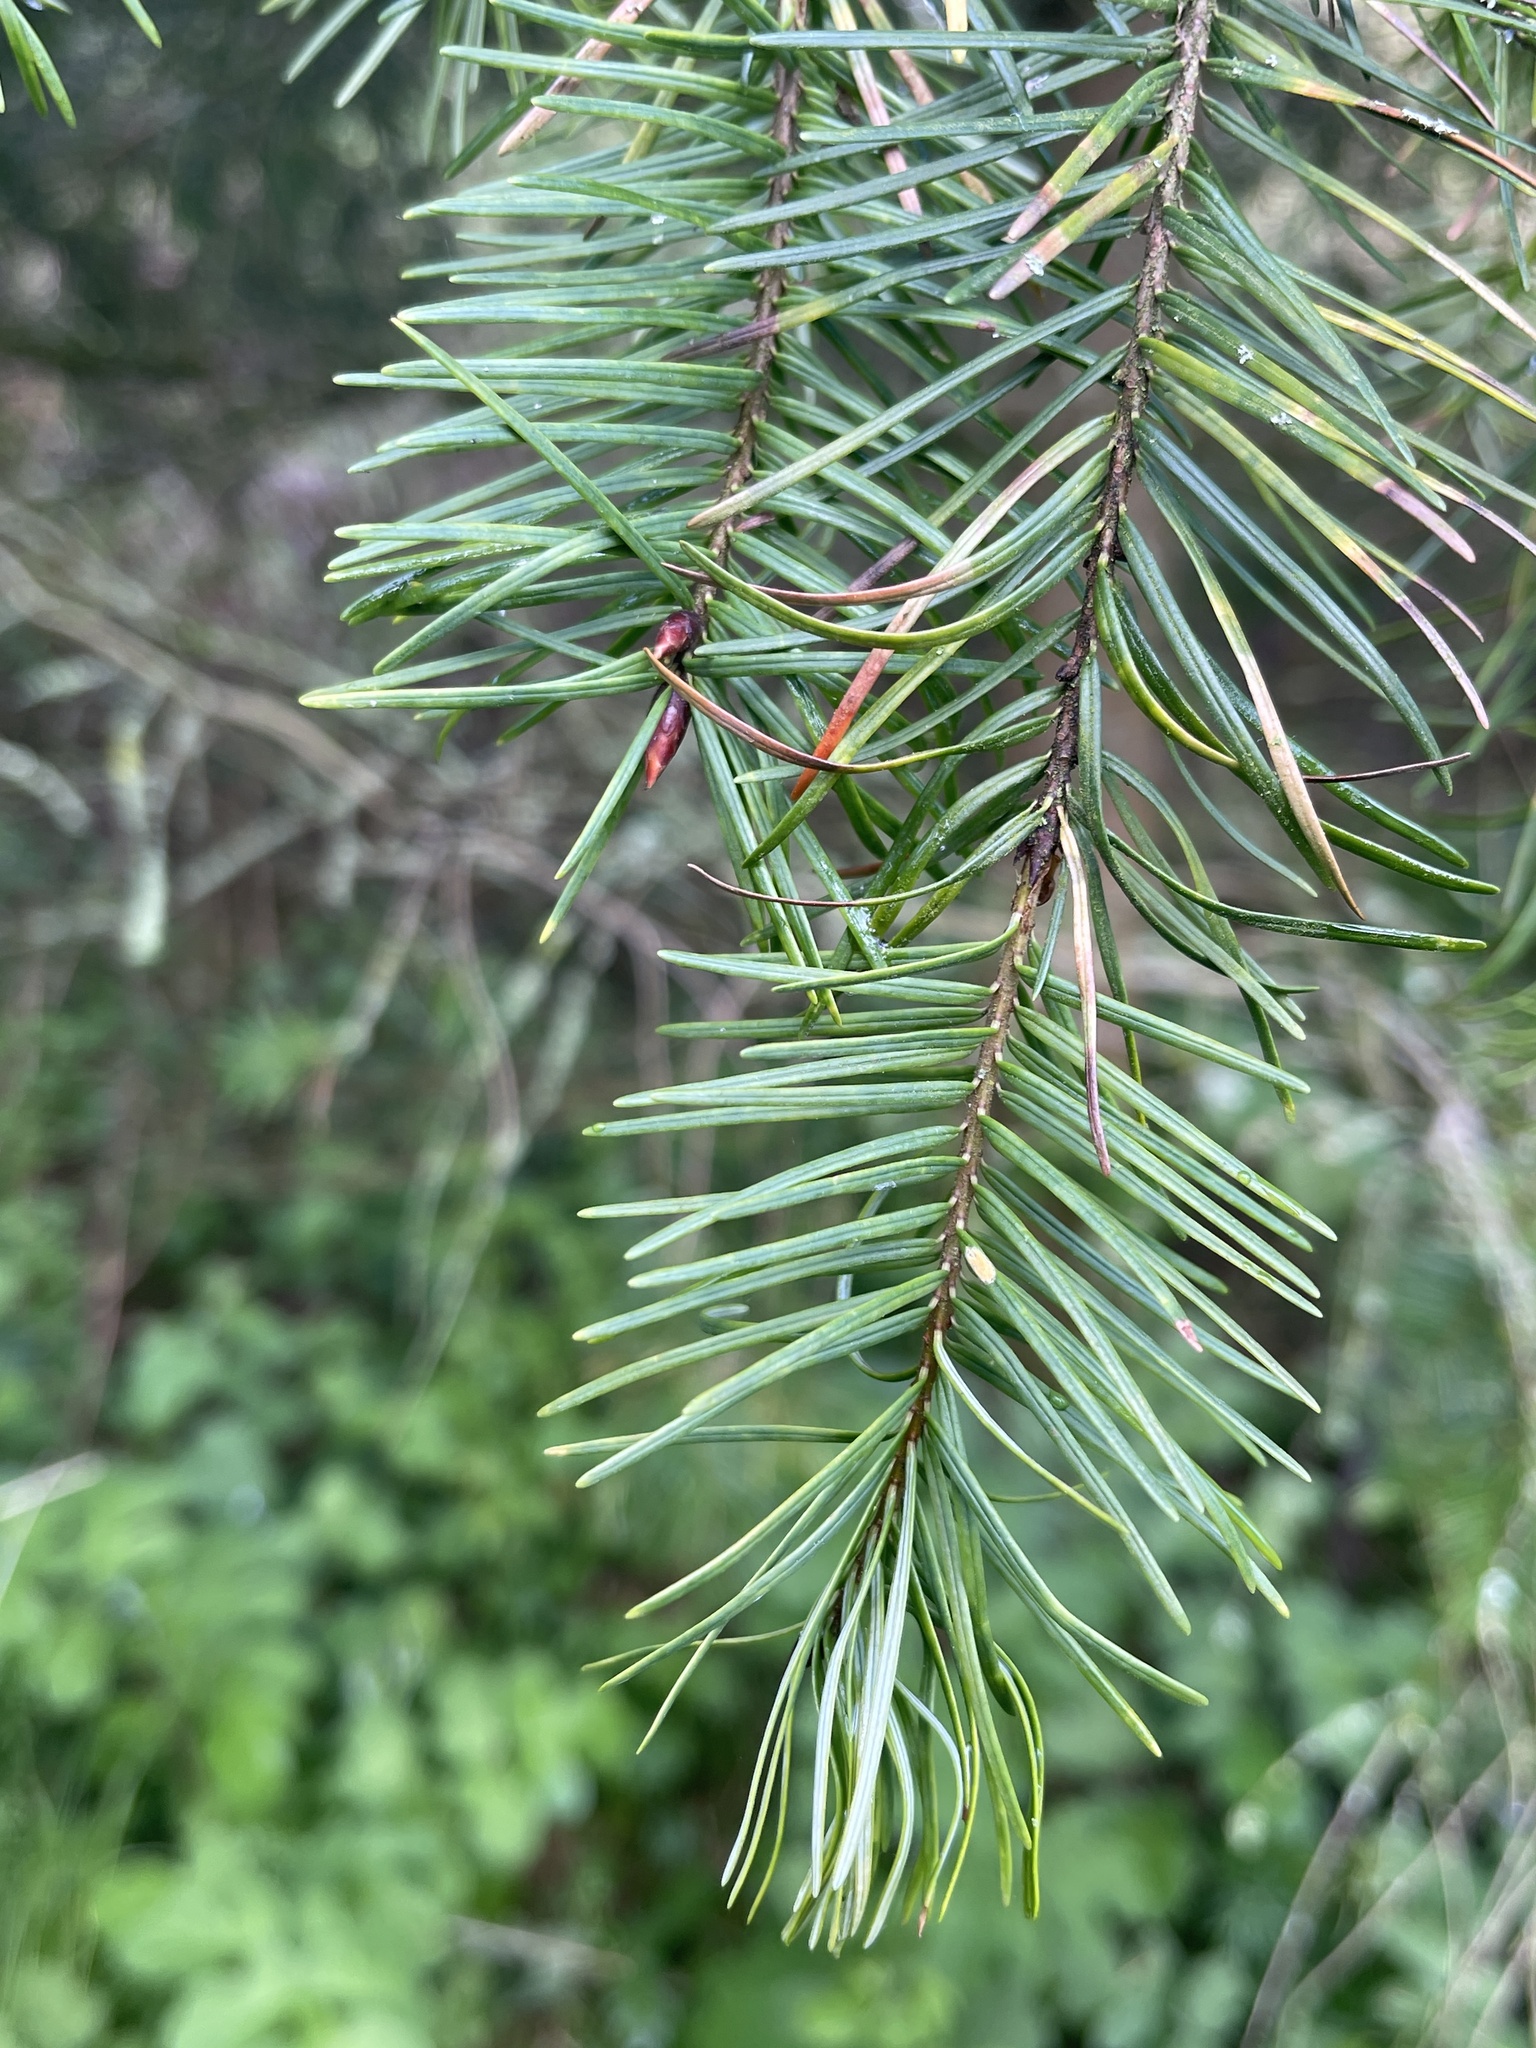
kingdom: Plantae
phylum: Tracheophyta
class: Pinopsida
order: Pinales
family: Pinaceae
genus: Pseudotsuga
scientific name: Pseudotsuga menziesii
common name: Douglas fir
